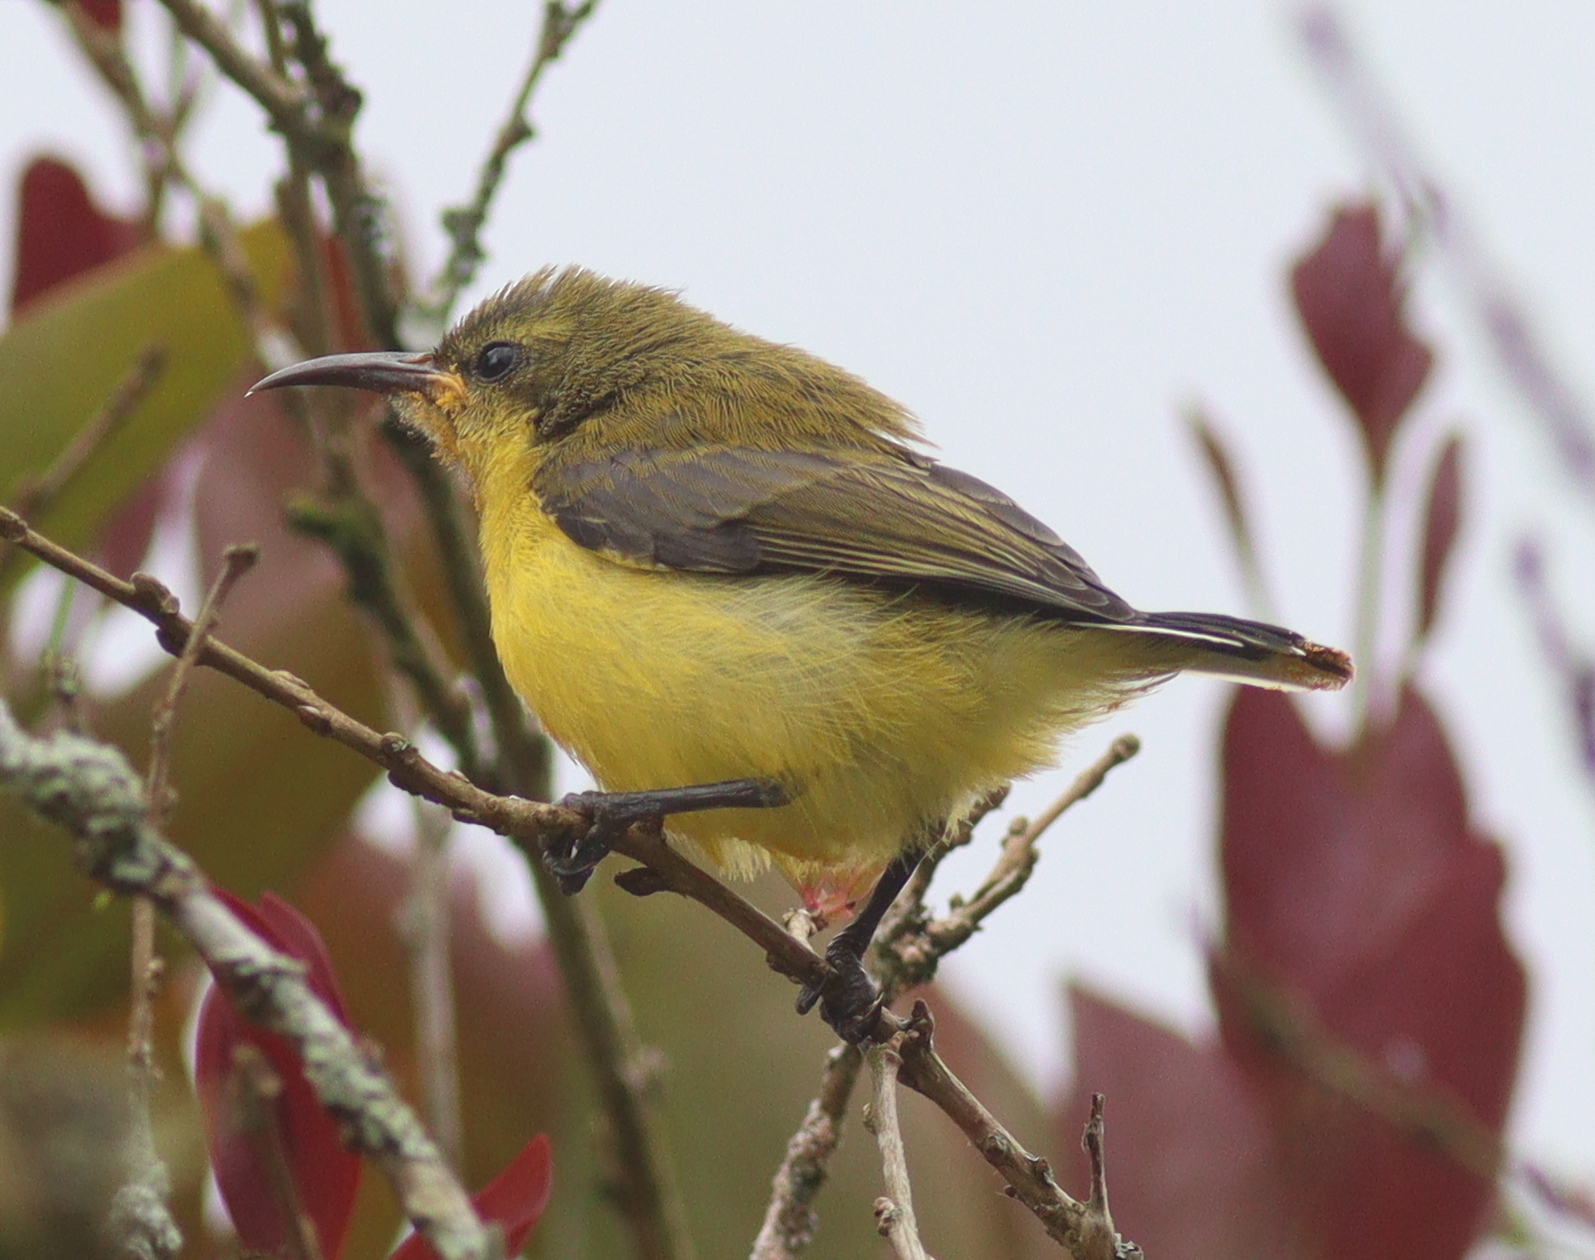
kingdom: Animalia
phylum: Chordata
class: Aves
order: Passeriformes
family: Nectariniidae
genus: Cinnyris
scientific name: Cinnyris
